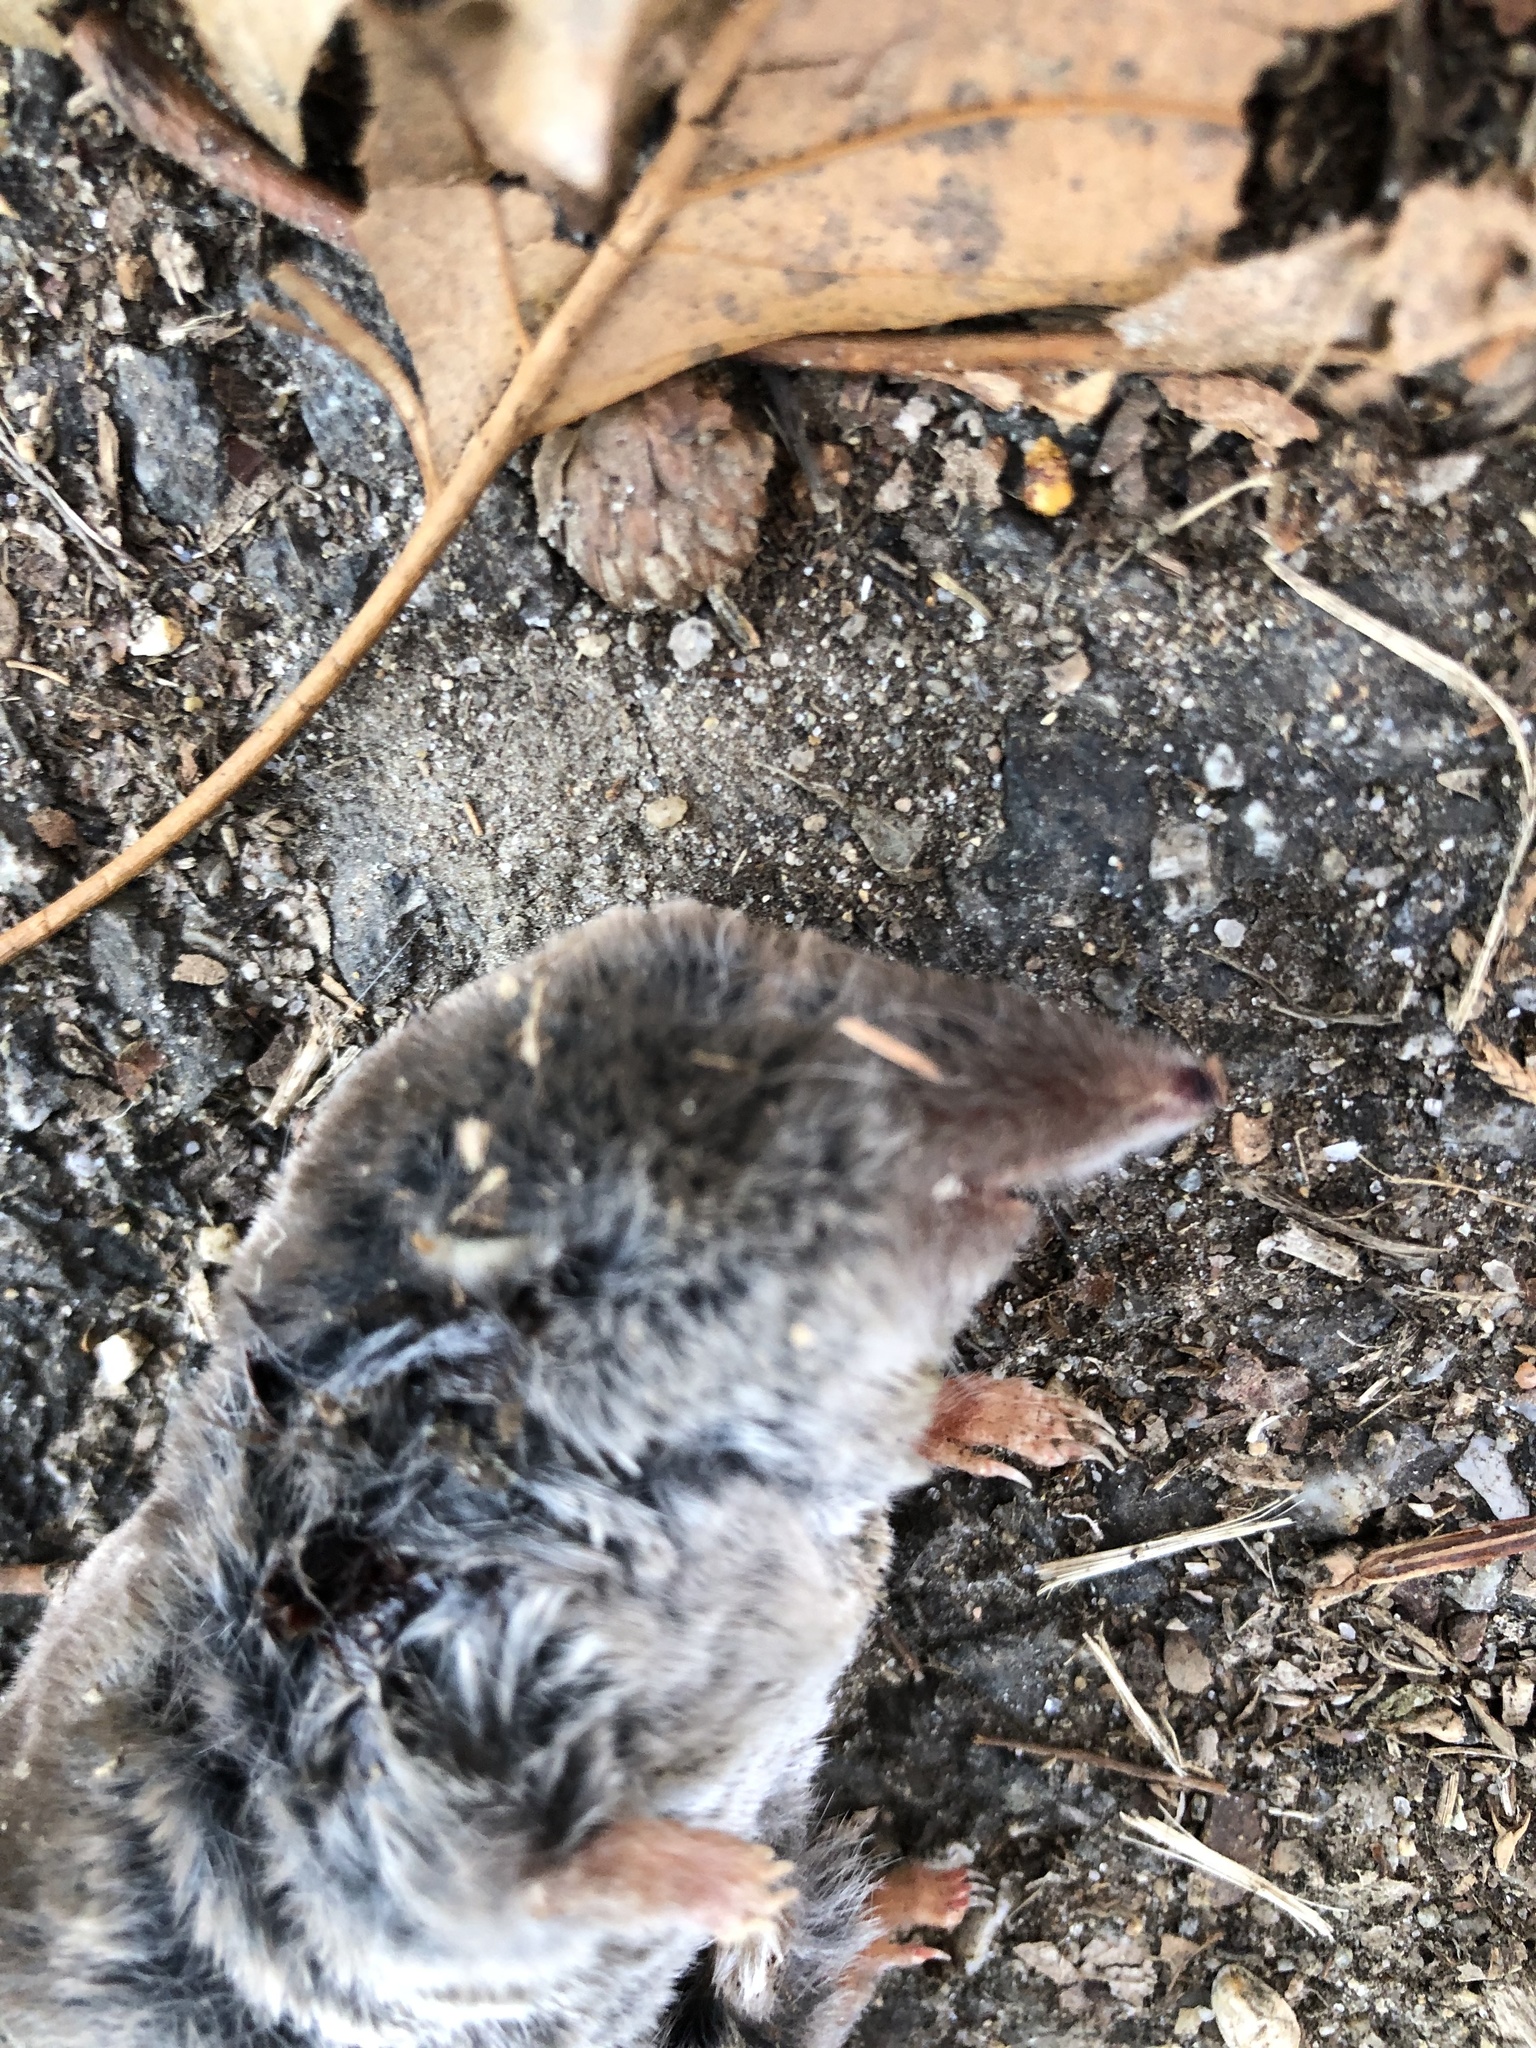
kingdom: Animalia
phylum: Chordata
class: Mammalia
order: Soricomorpha
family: Soricidae
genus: Blarina
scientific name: Blarina brevicauda
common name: Northern short-tailed shrew
